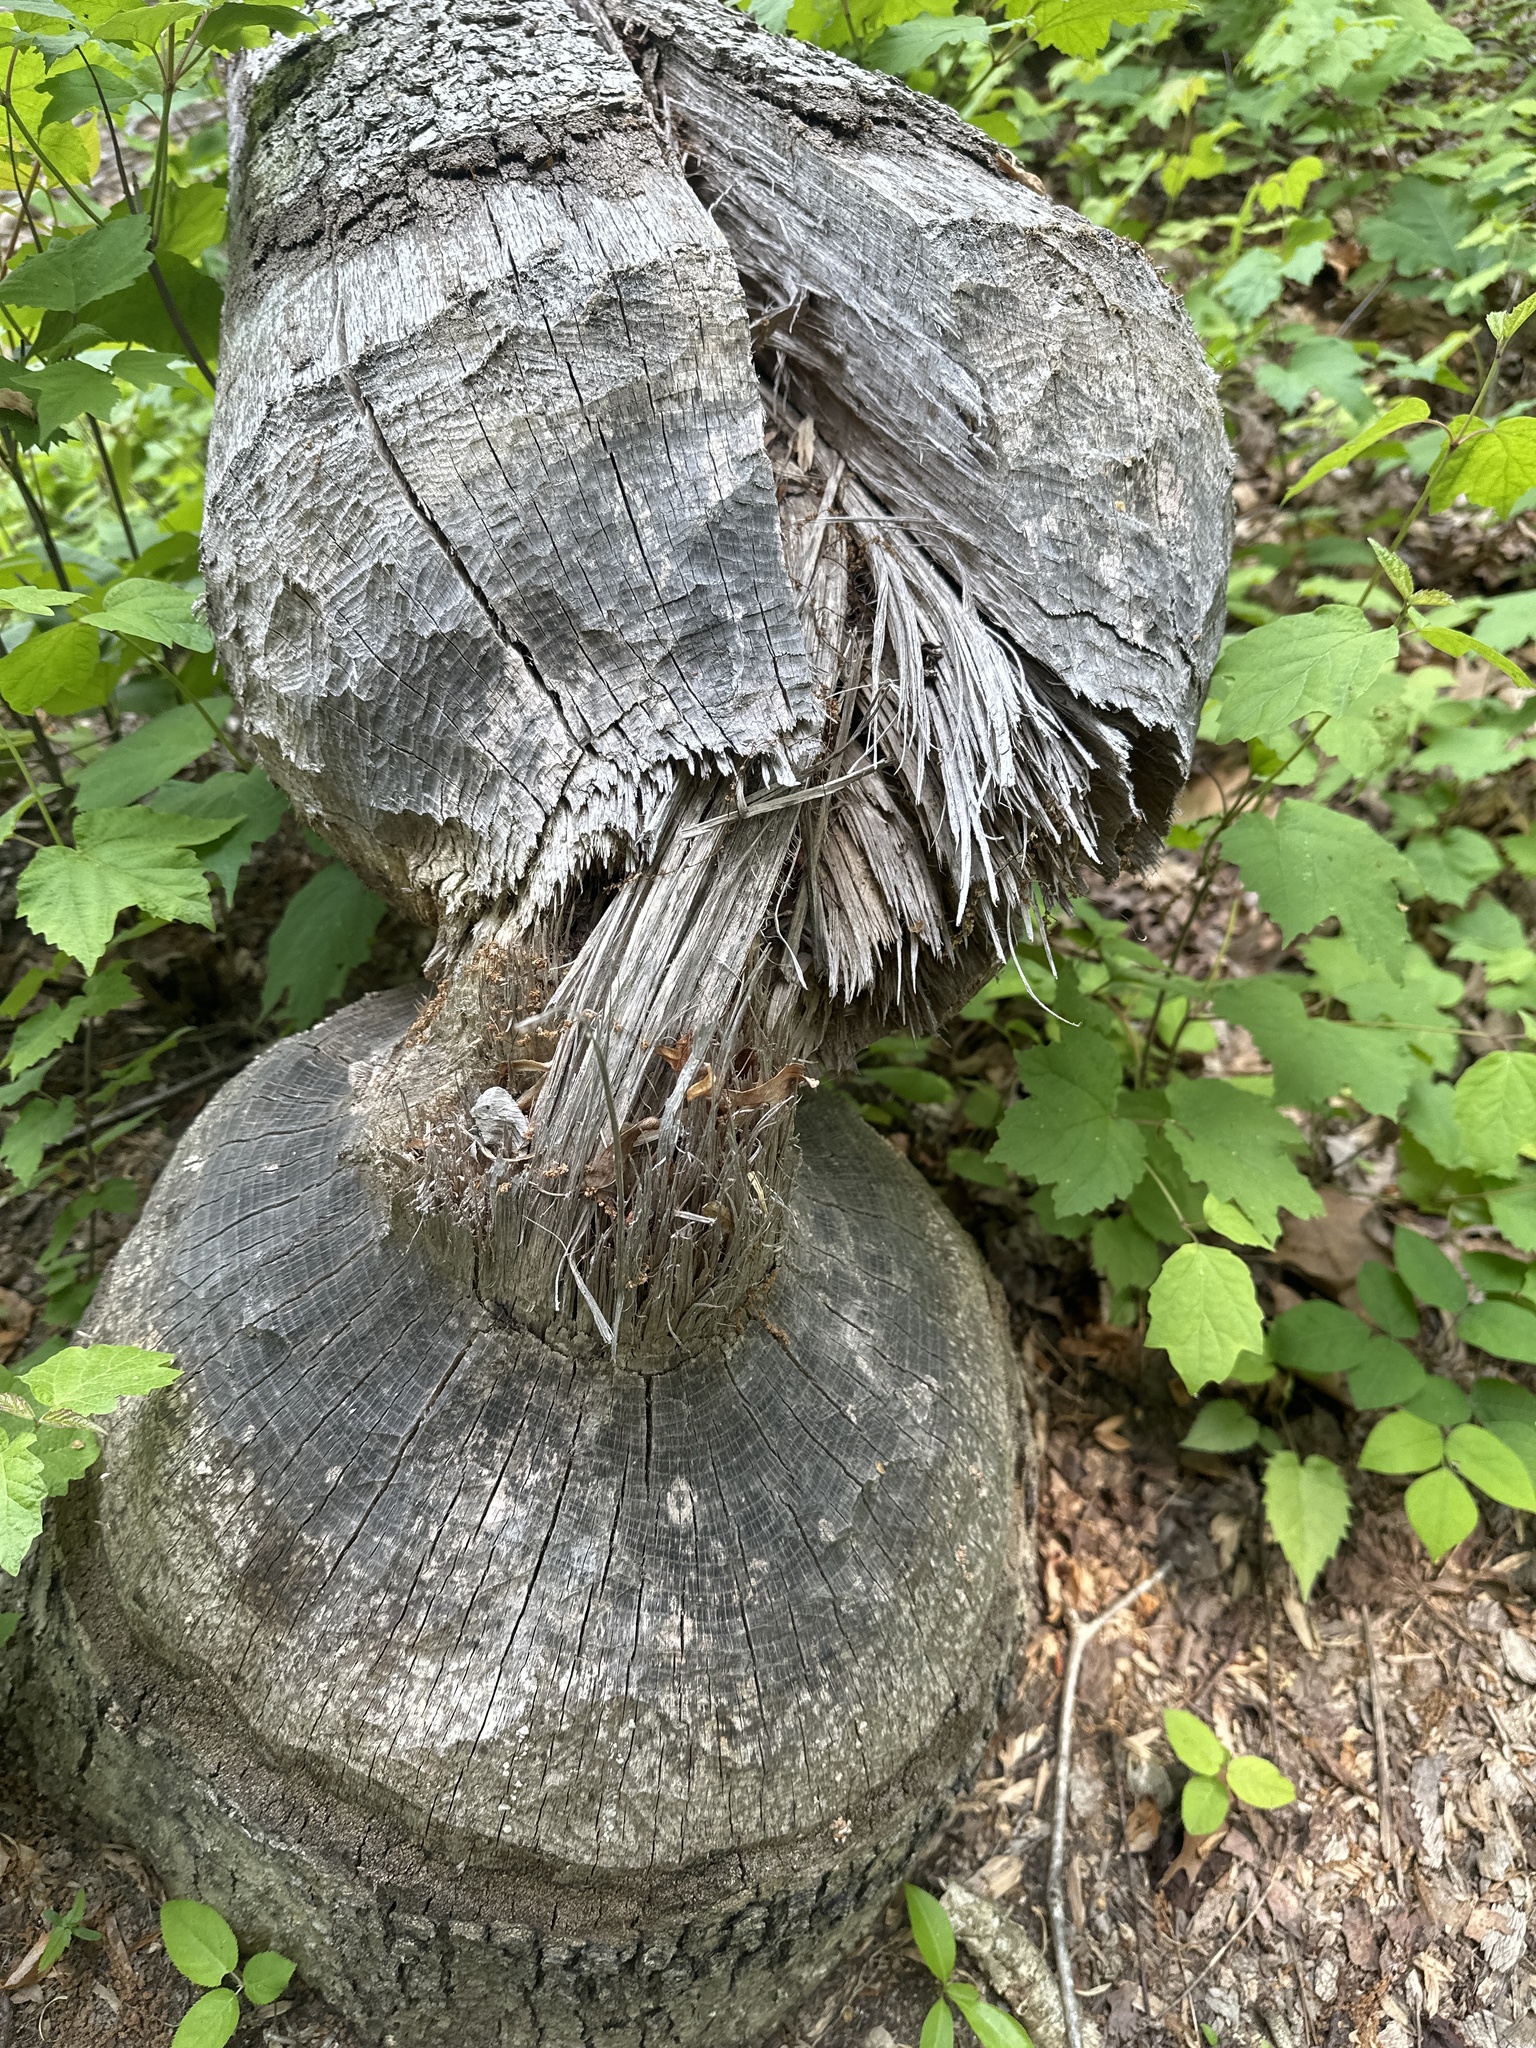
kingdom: Animalia
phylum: Chordata
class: Mammalia
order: Rodentia
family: Castoridae
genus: Castor
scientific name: Castor canadensis
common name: American beaver
